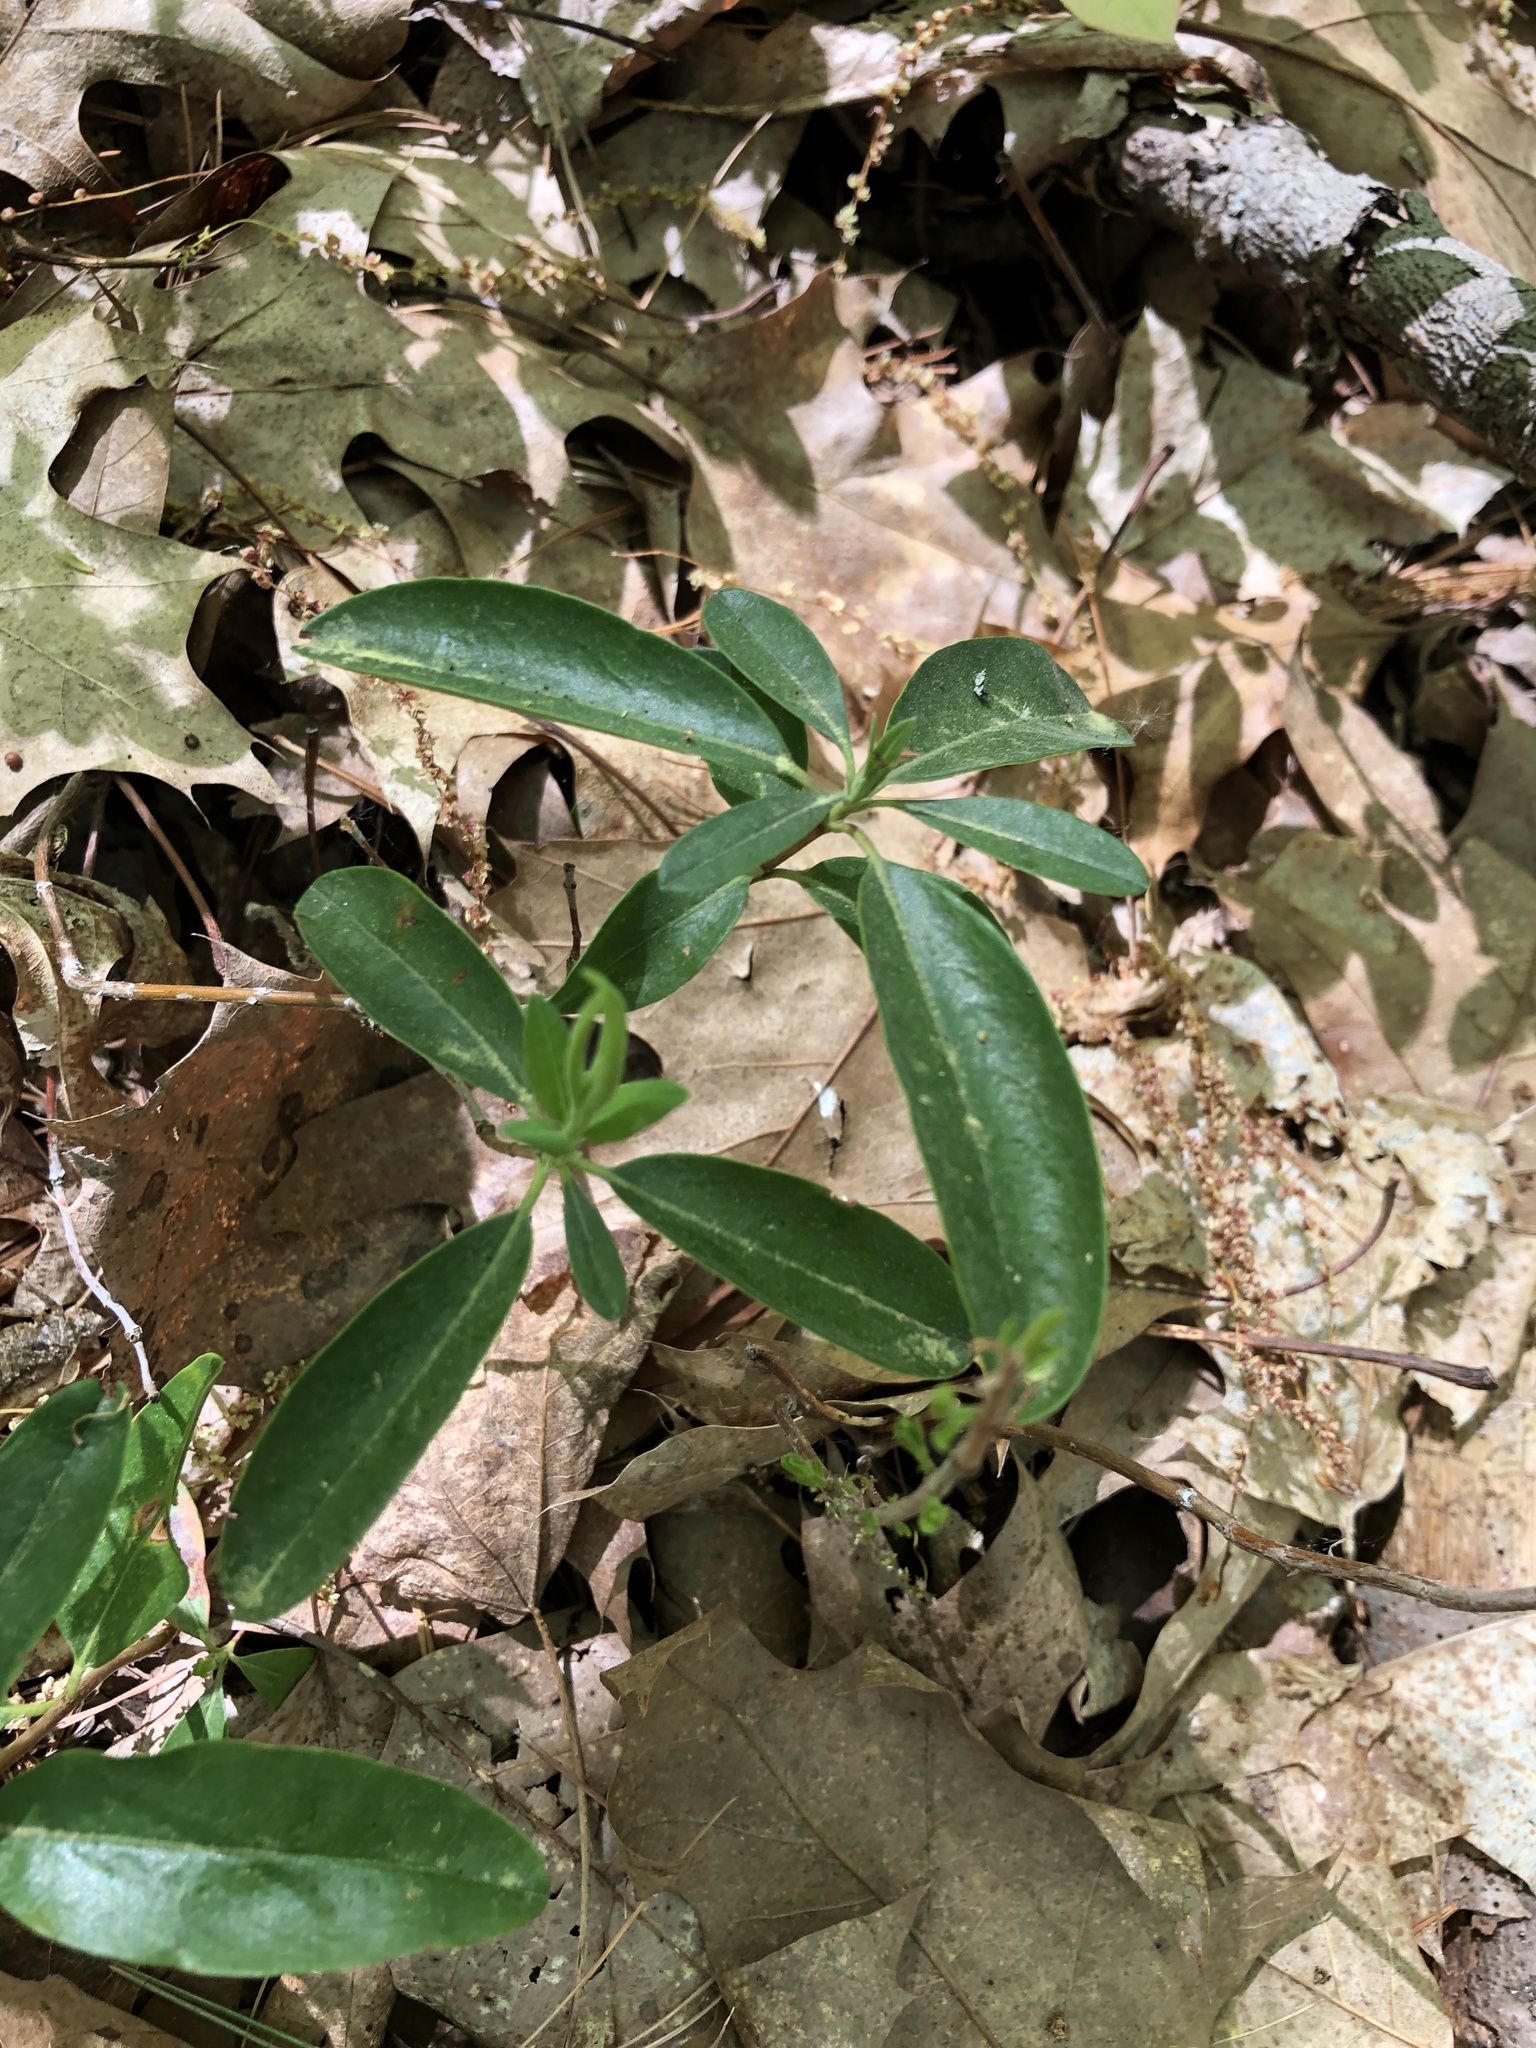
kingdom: Plantae
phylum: Tracheophyta
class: Magnoliopsida
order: Ericales
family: Ericaceae
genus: Kalmia
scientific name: Kalmia angustifolia
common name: Sheep-laurel
